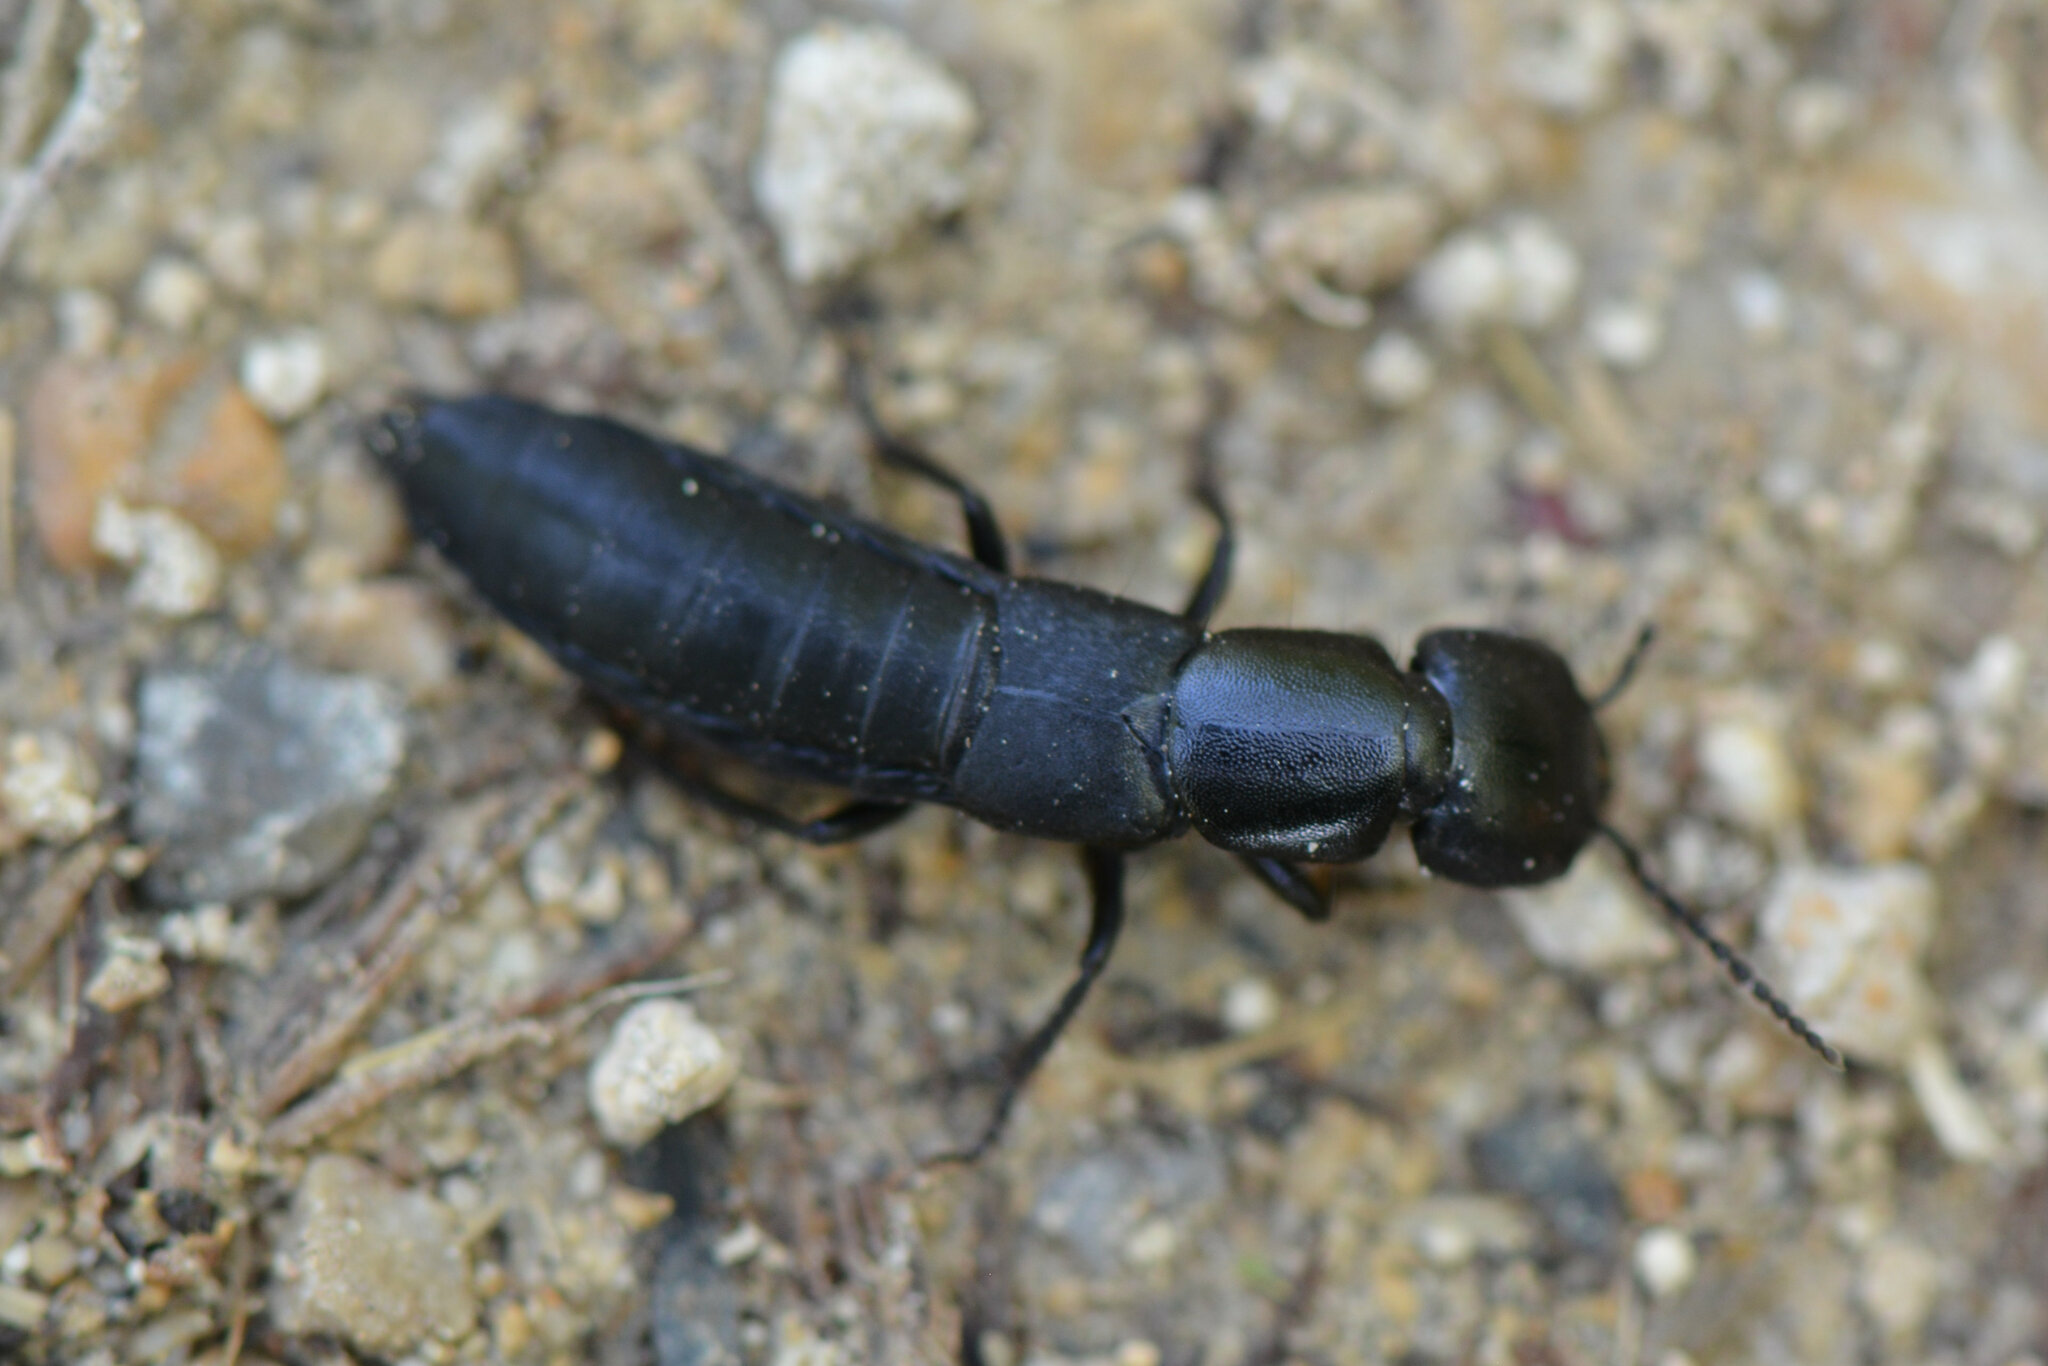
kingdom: Animalia
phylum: Arthropoda
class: Insecta
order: Coleoptera
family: Staphylinidae
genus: Ocypus
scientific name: Ocypus nitens
